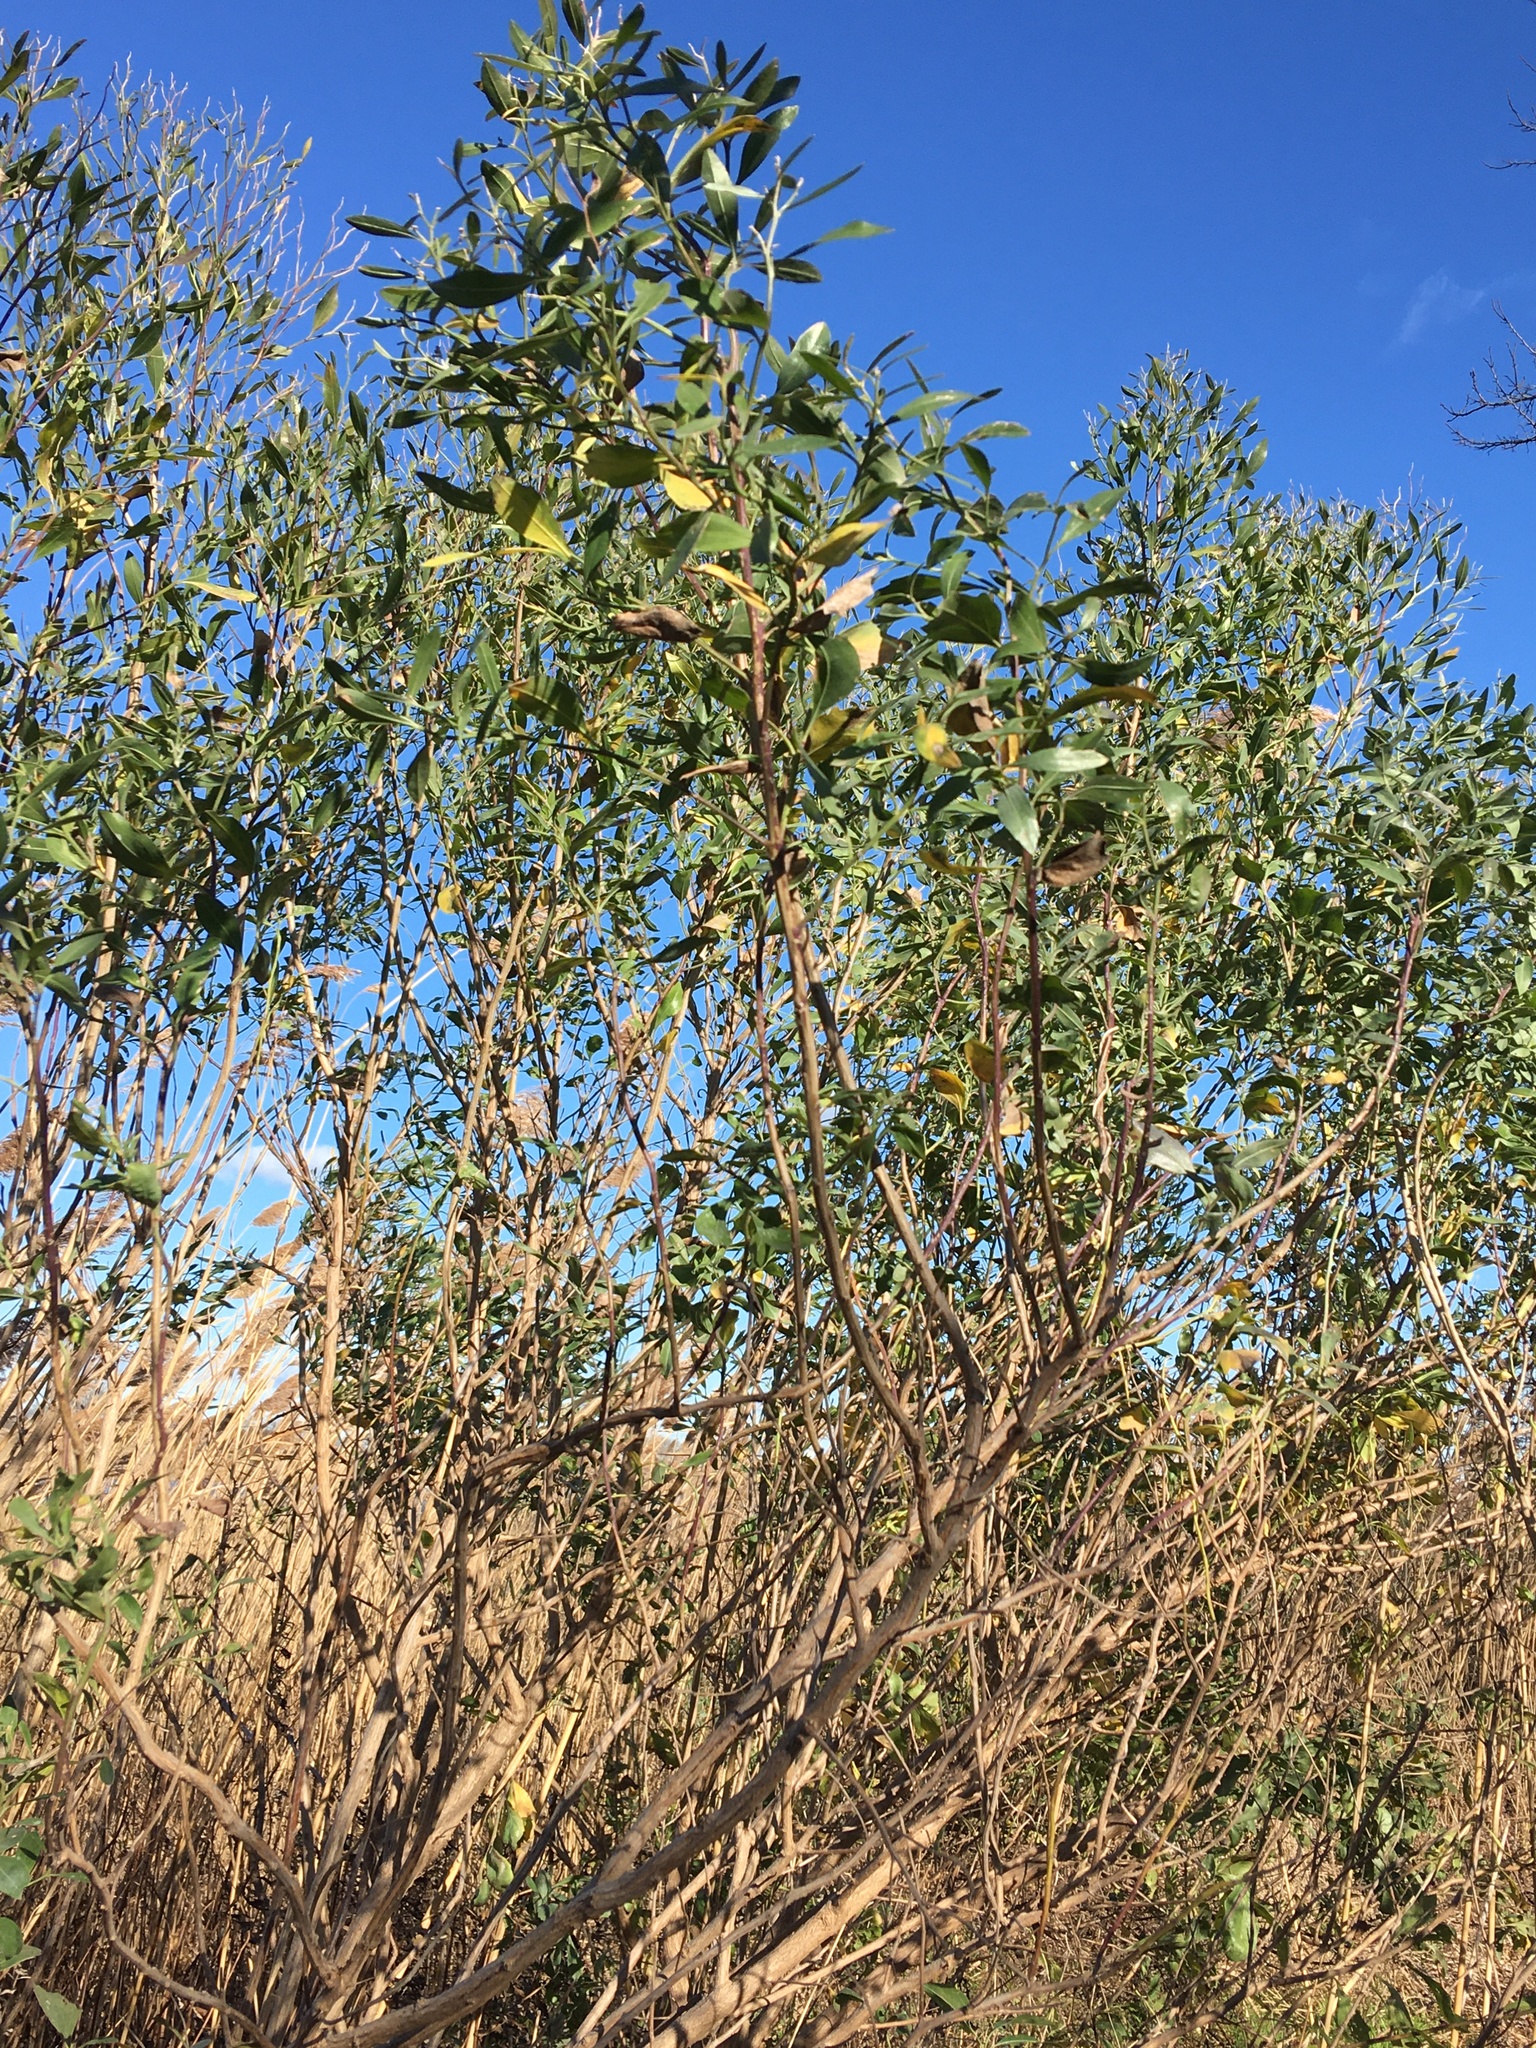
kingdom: Plantae
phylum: Tracheophyta
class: Magnoliopsida
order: Asterales
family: Asteraceae
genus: Baccharis
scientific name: Baccharis halimifolia
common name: Eastern baccharis
